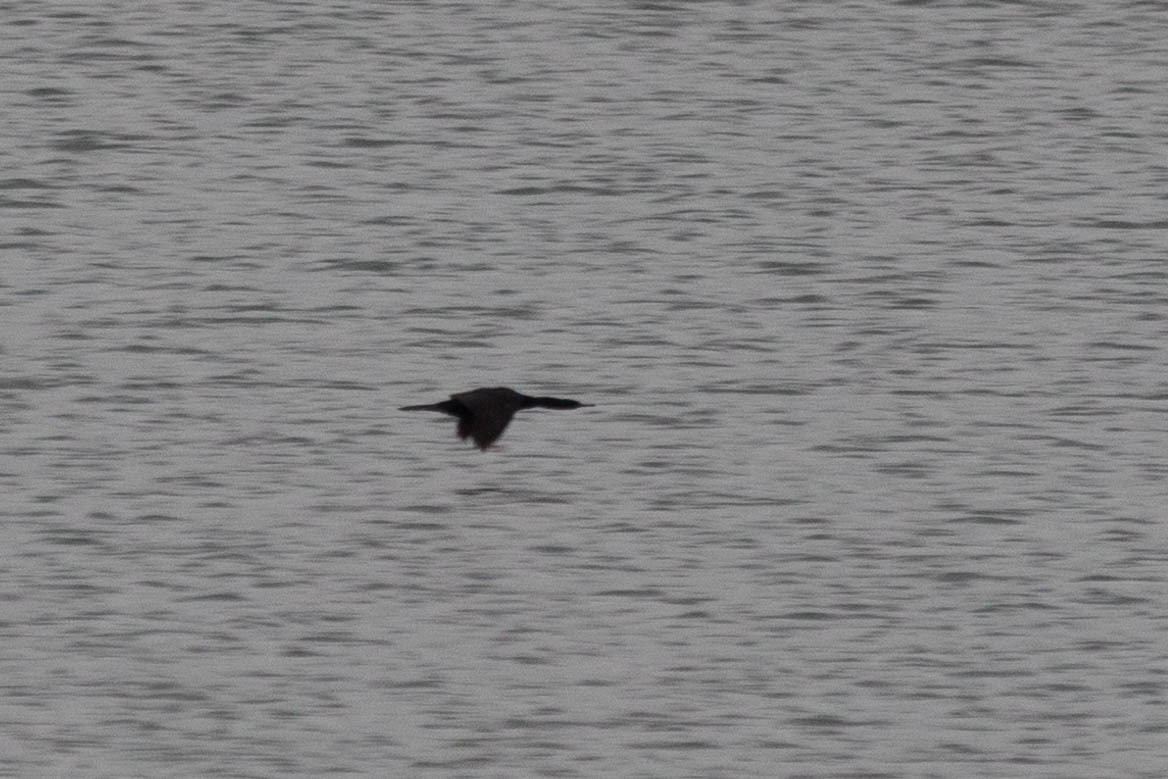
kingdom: Animalia
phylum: Chordata
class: Aves
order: Suliformes
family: Phalacrocoracidae
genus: Phalacrocorax
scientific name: Phalacrocorax pelagicus
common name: Pelagic cormorant
